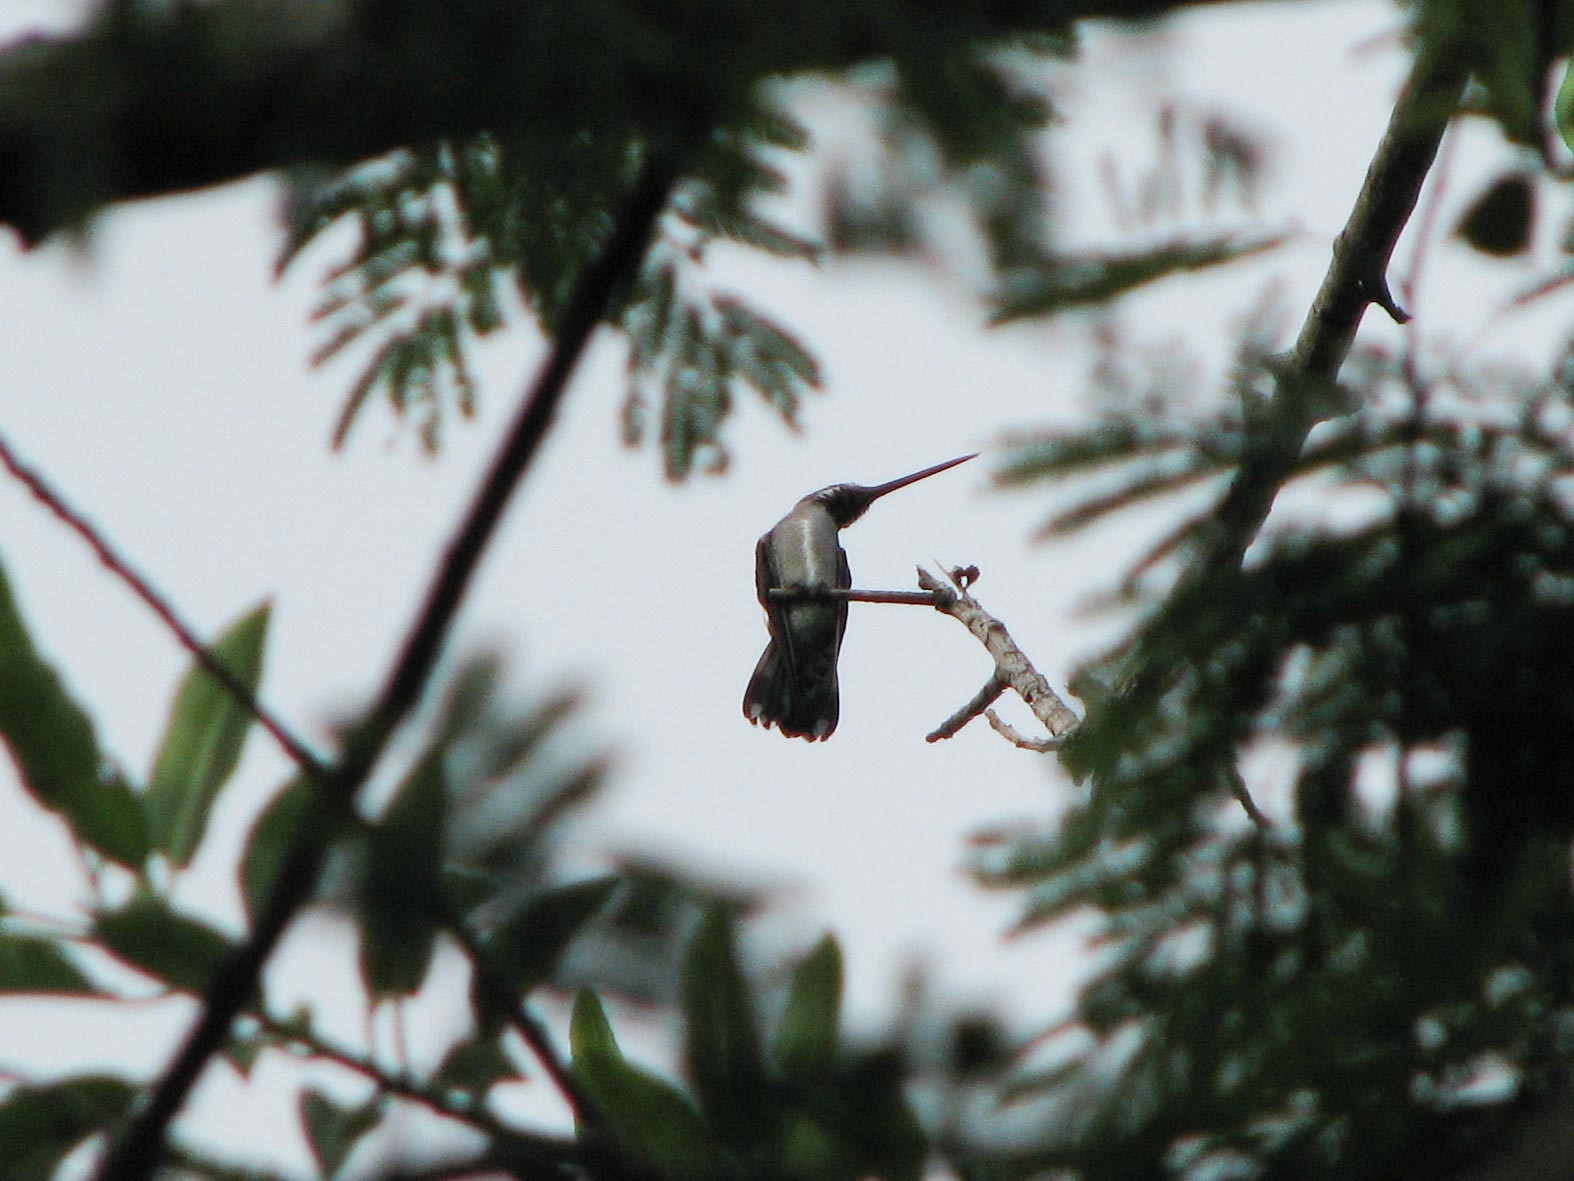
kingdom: Animalia
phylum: Chordata
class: Aves
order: Apodiformes
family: Trochilidae
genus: Heliomaster
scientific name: Heliomaster constantii
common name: Plain-capped starthroat
